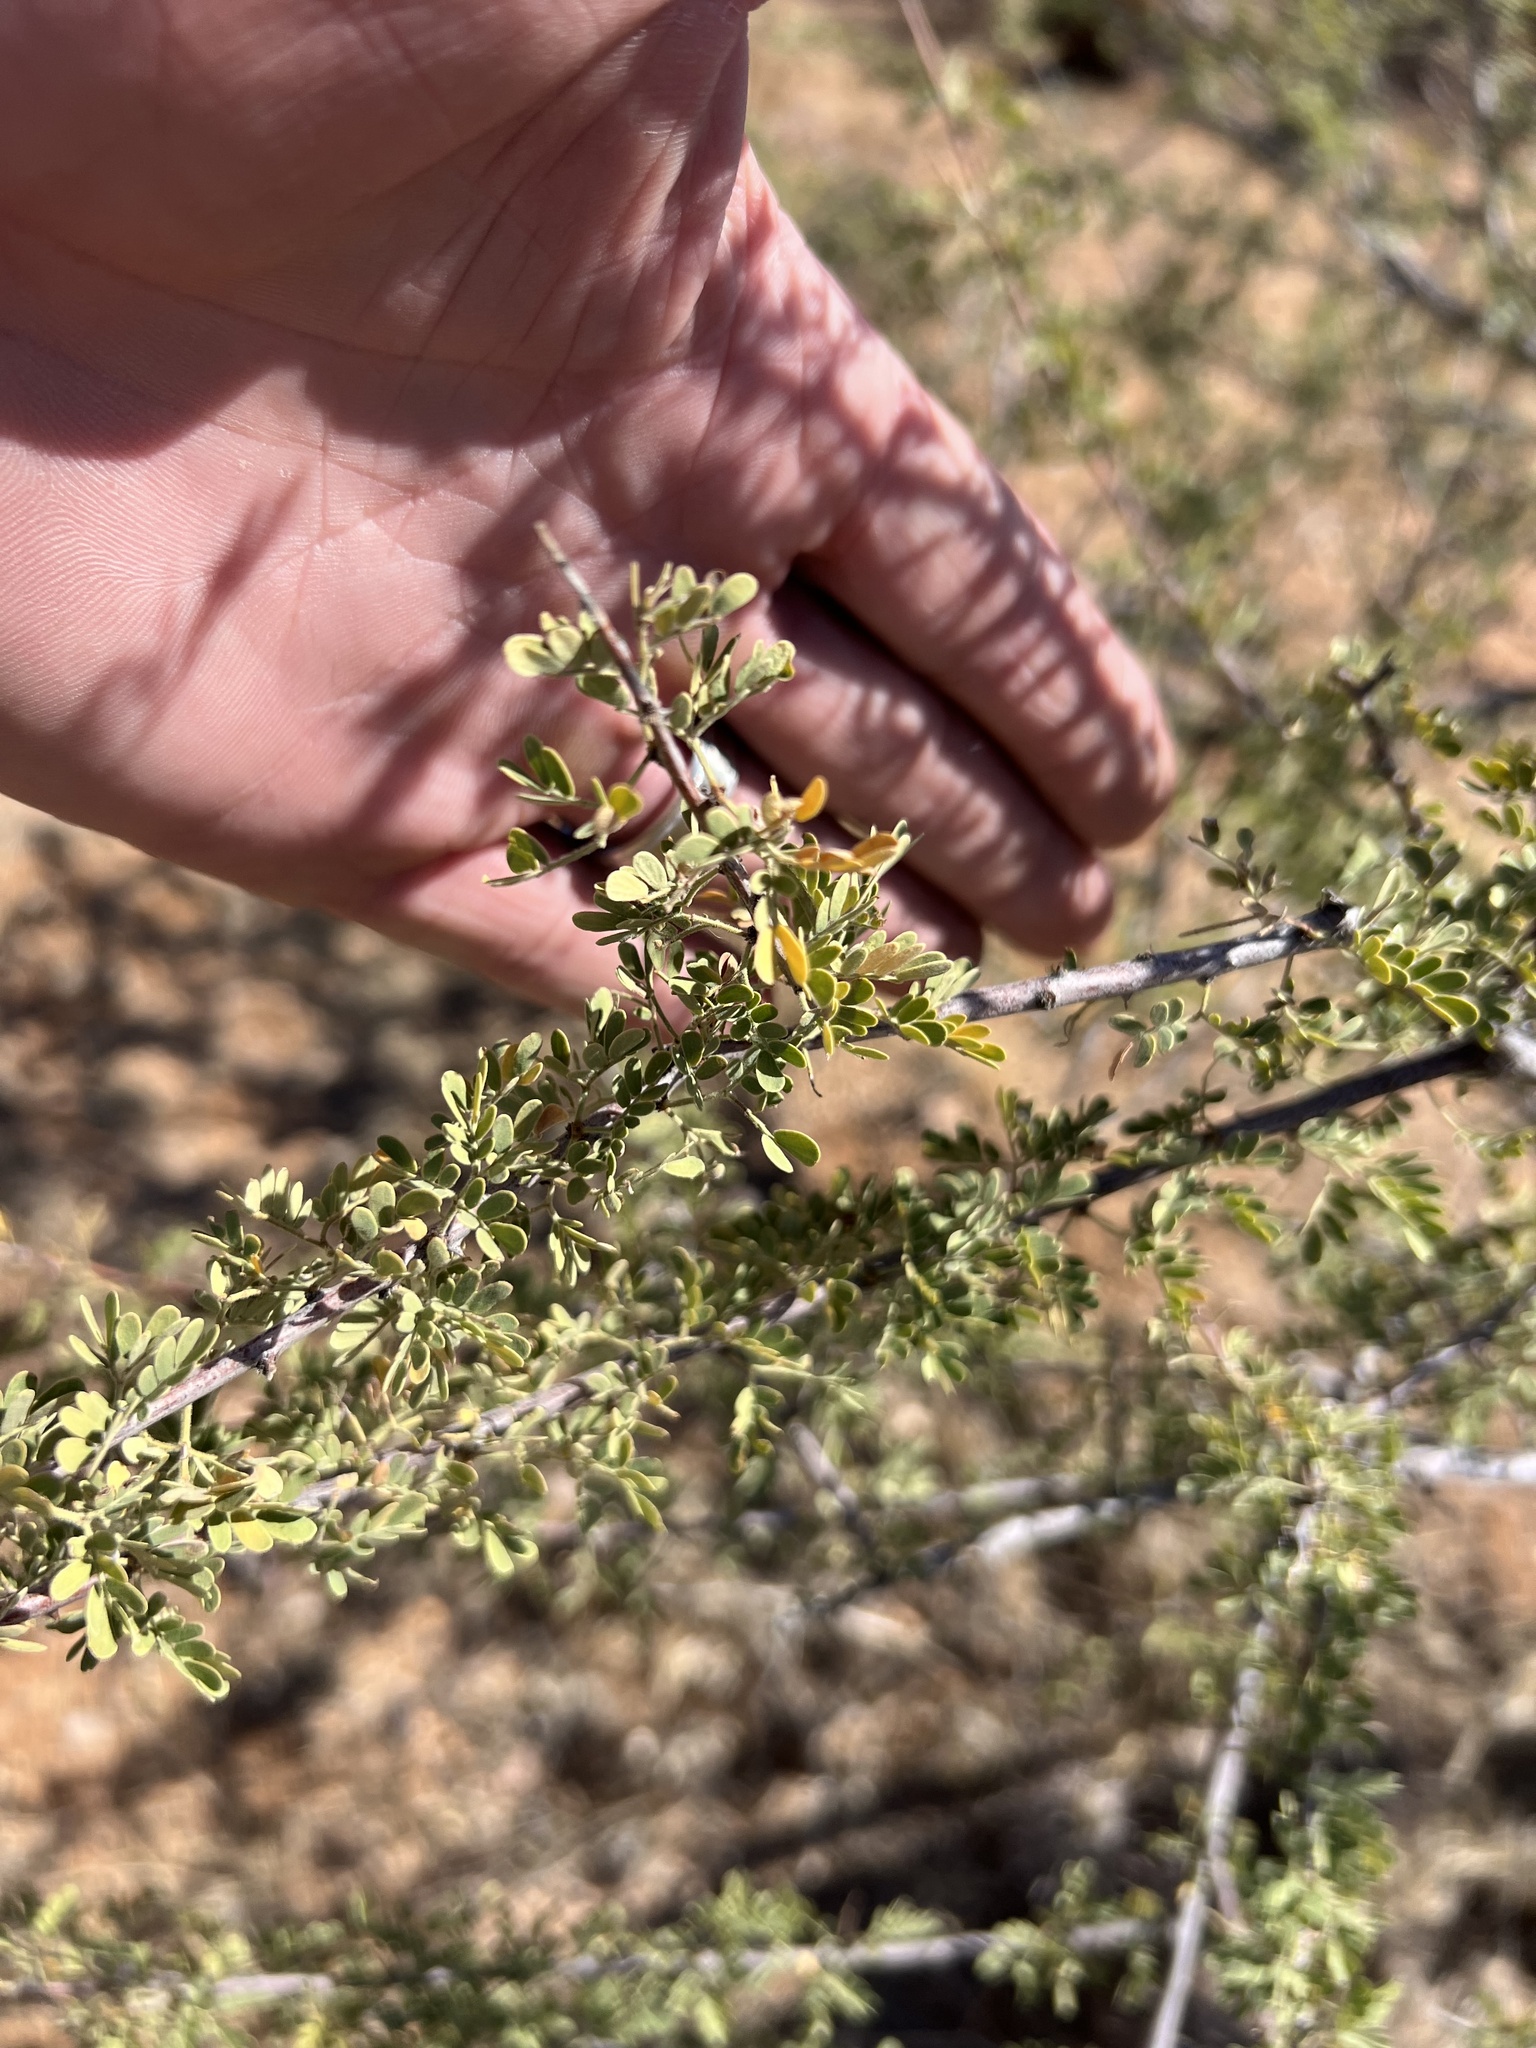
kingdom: Plantae
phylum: Tracheophyta
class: Magnoliopsida
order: Fabales
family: Fabaceae
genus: Senegalia
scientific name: Senegalia greggii
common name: Texas-mimosa
